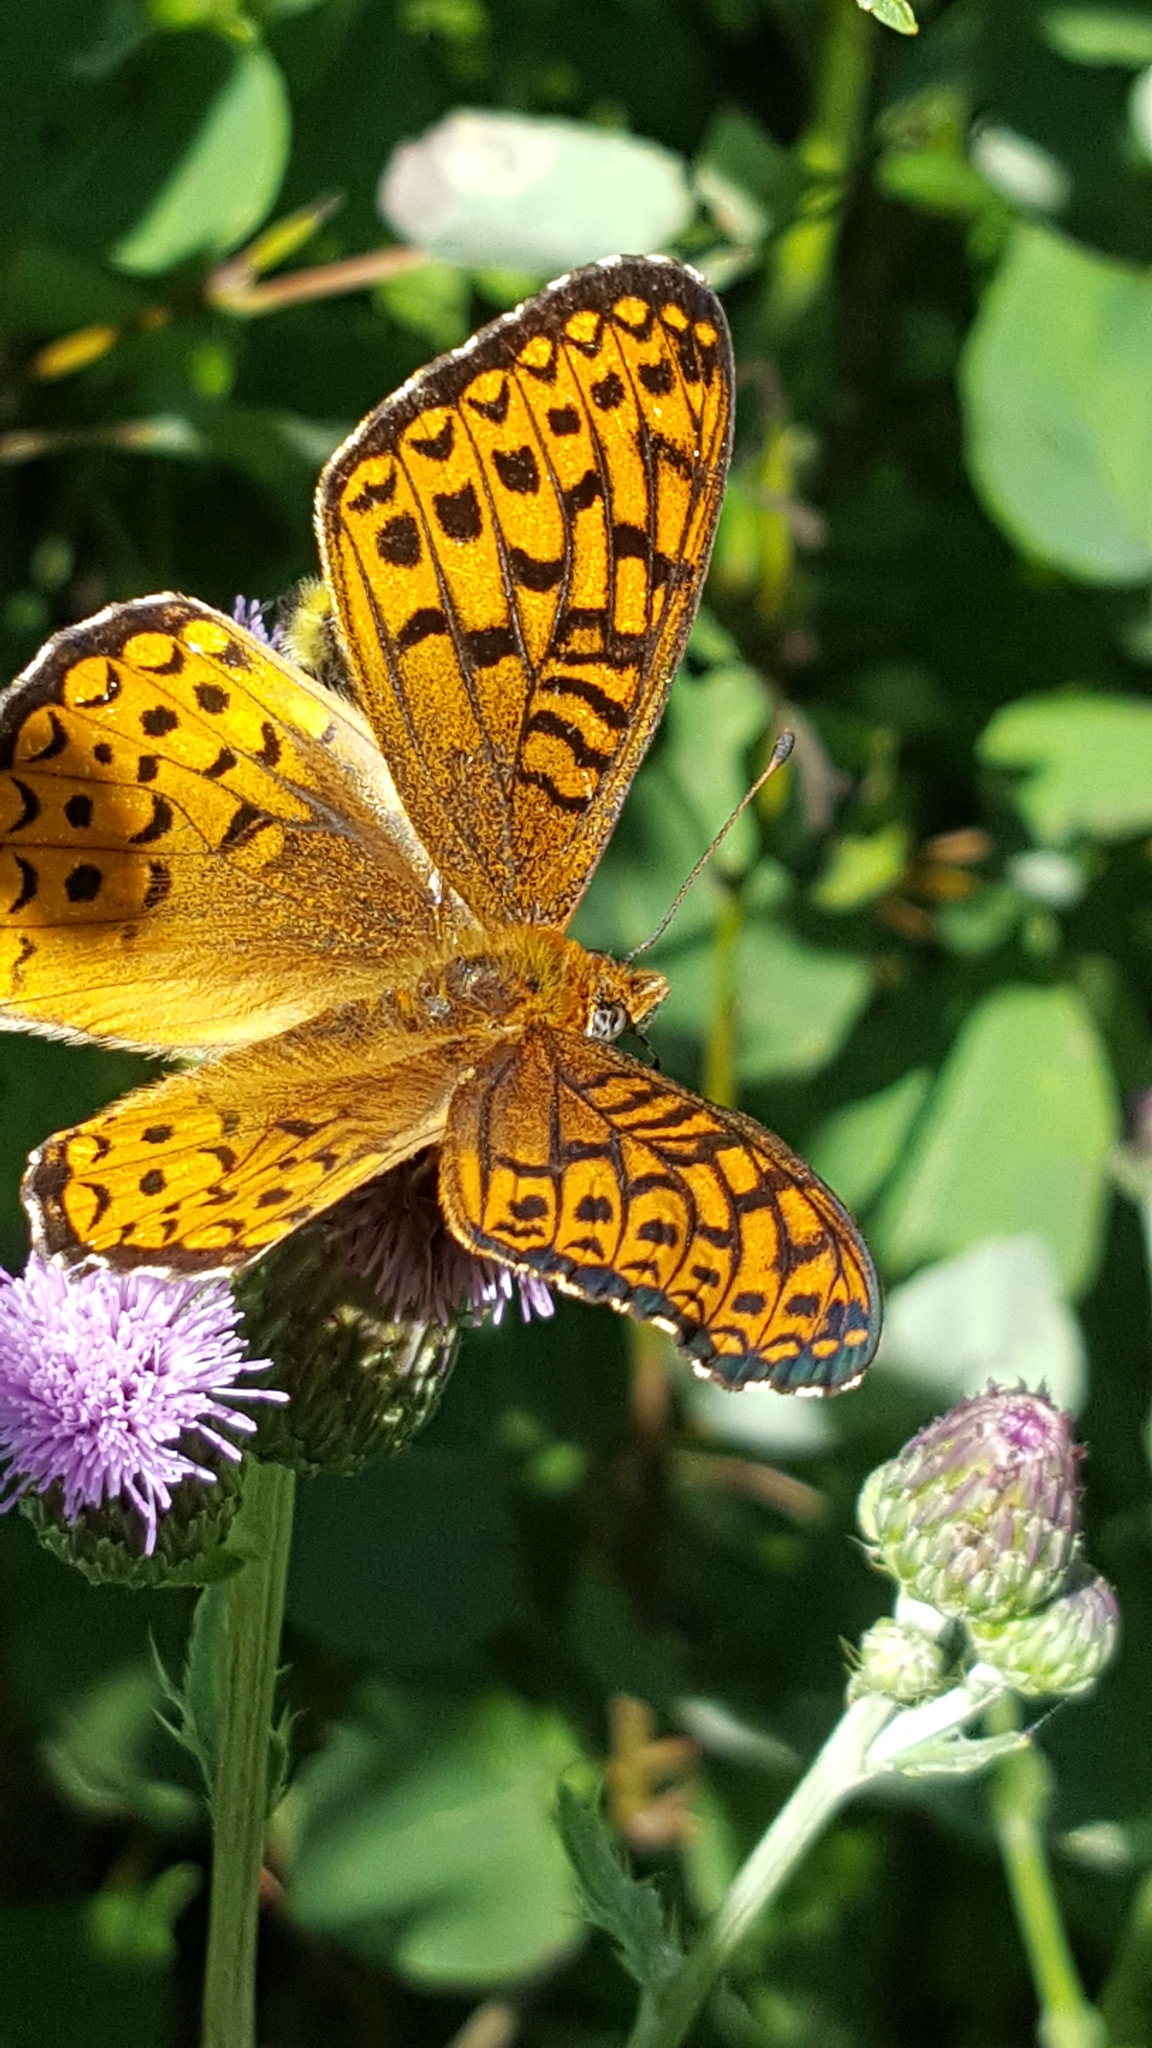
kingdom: Animalia
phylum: Arthropoda
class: Insecta
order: Lepidoptera
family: Nymphalidae
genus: Speyeria
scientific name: Speyeria atlantis
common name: Atlantis fritillary
